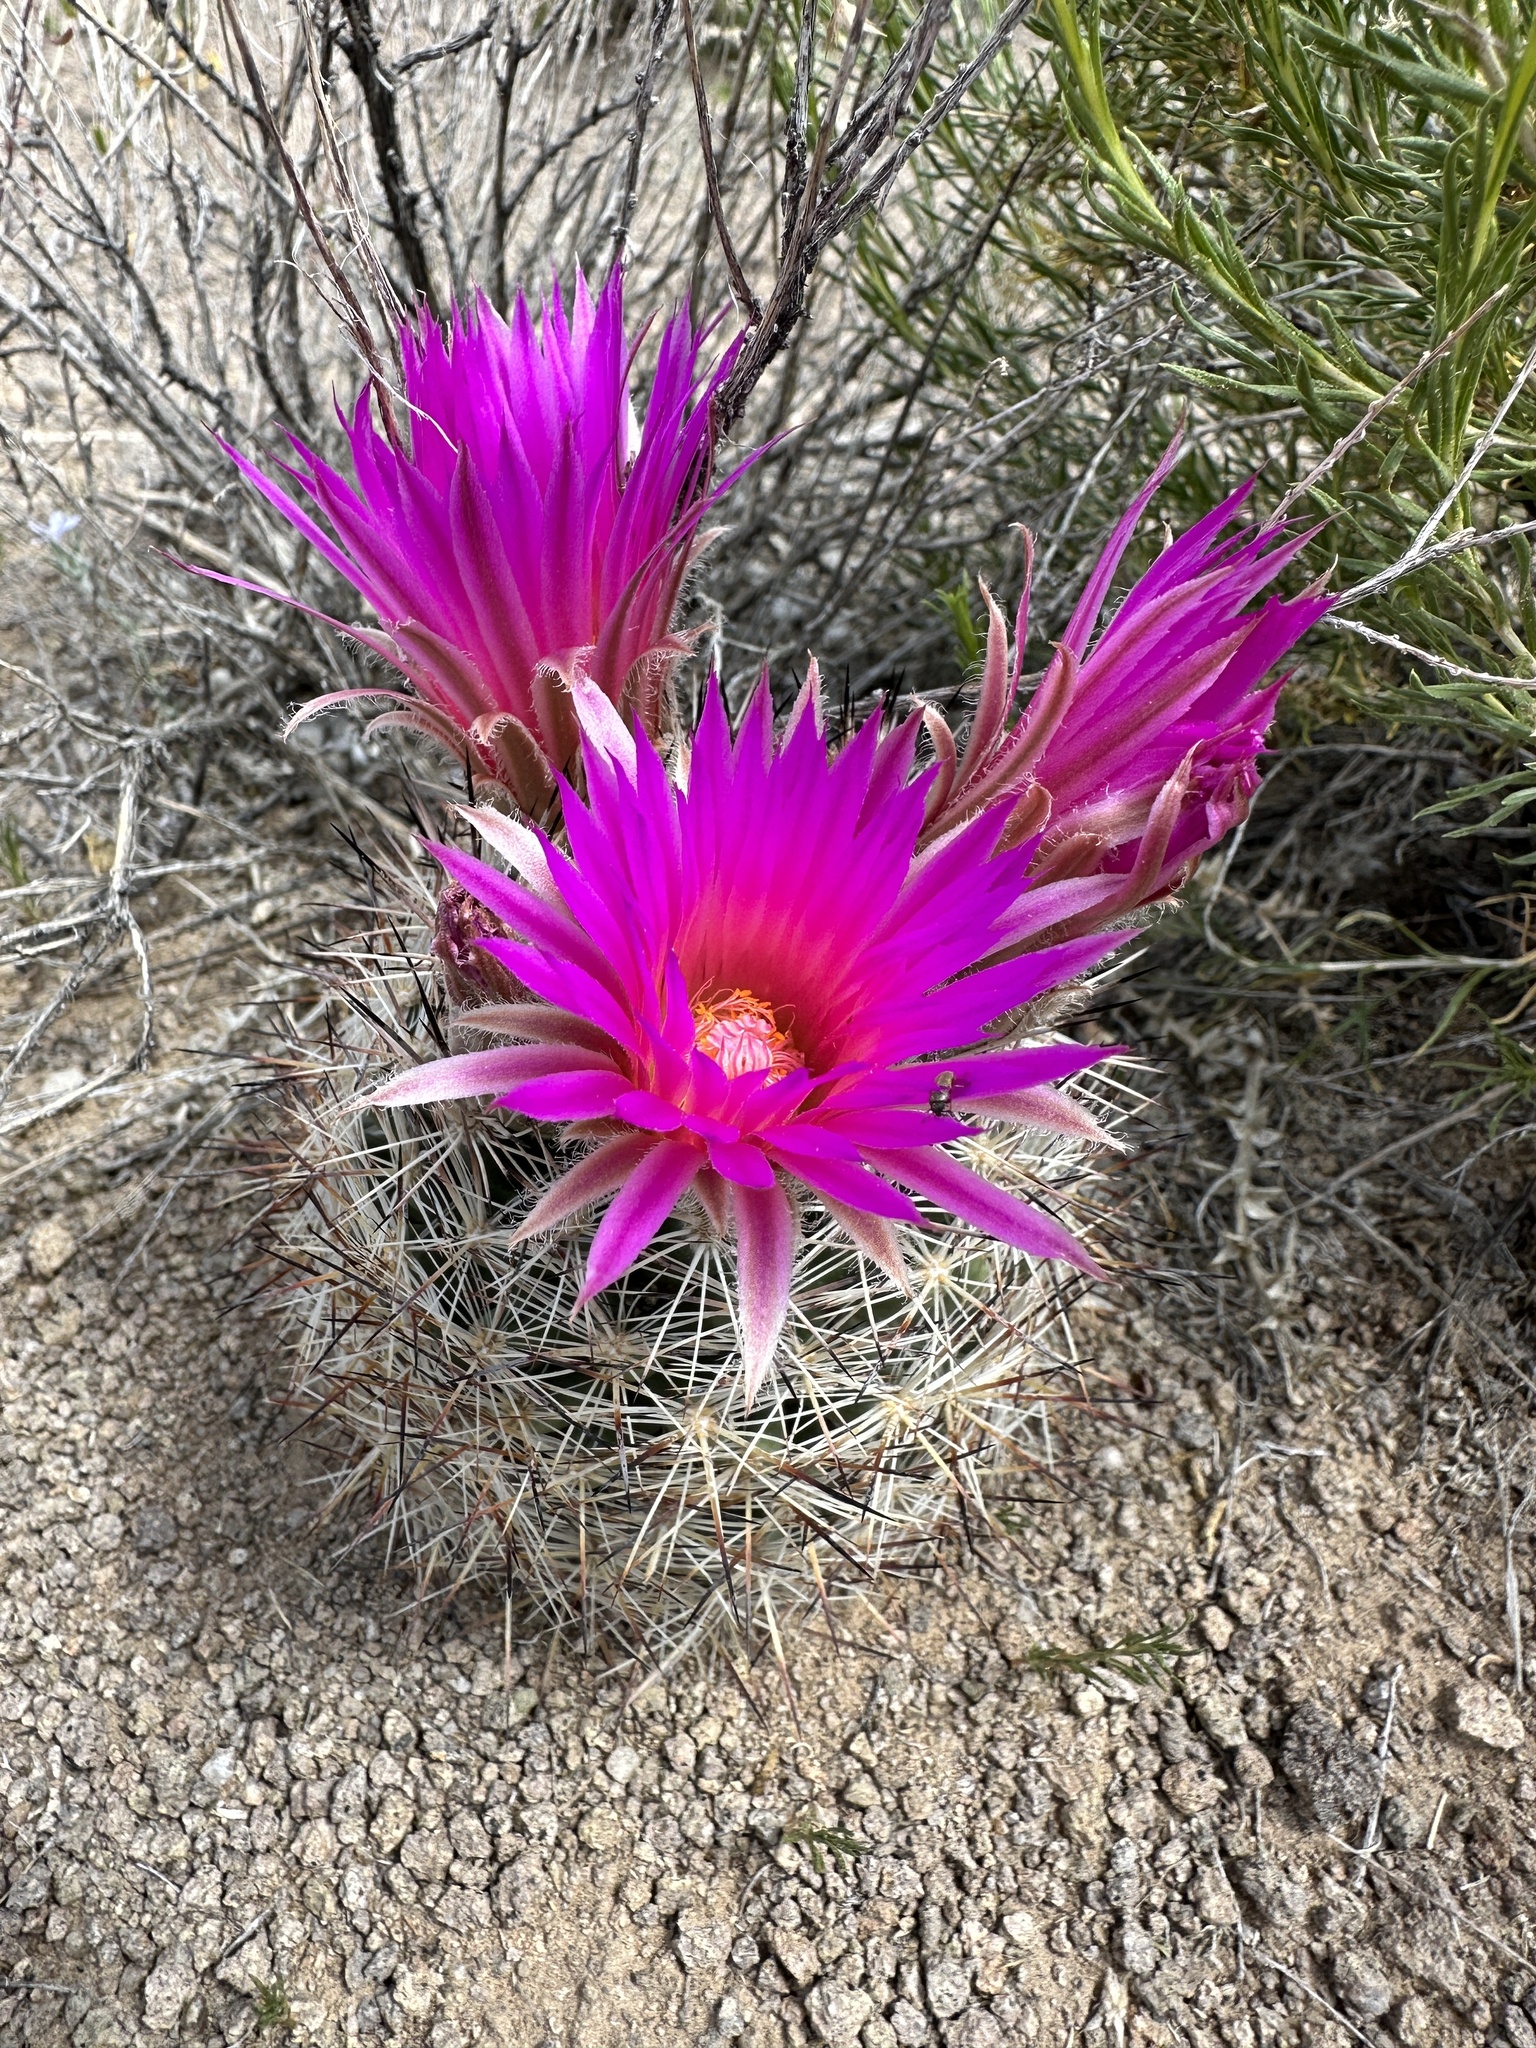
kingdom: Plantae
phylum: Tracheophyta
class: Magnoliopsida
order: Caryophyllales
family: Cactaceae
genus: Pelecyphora
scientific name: Pelecyphora vivipara
